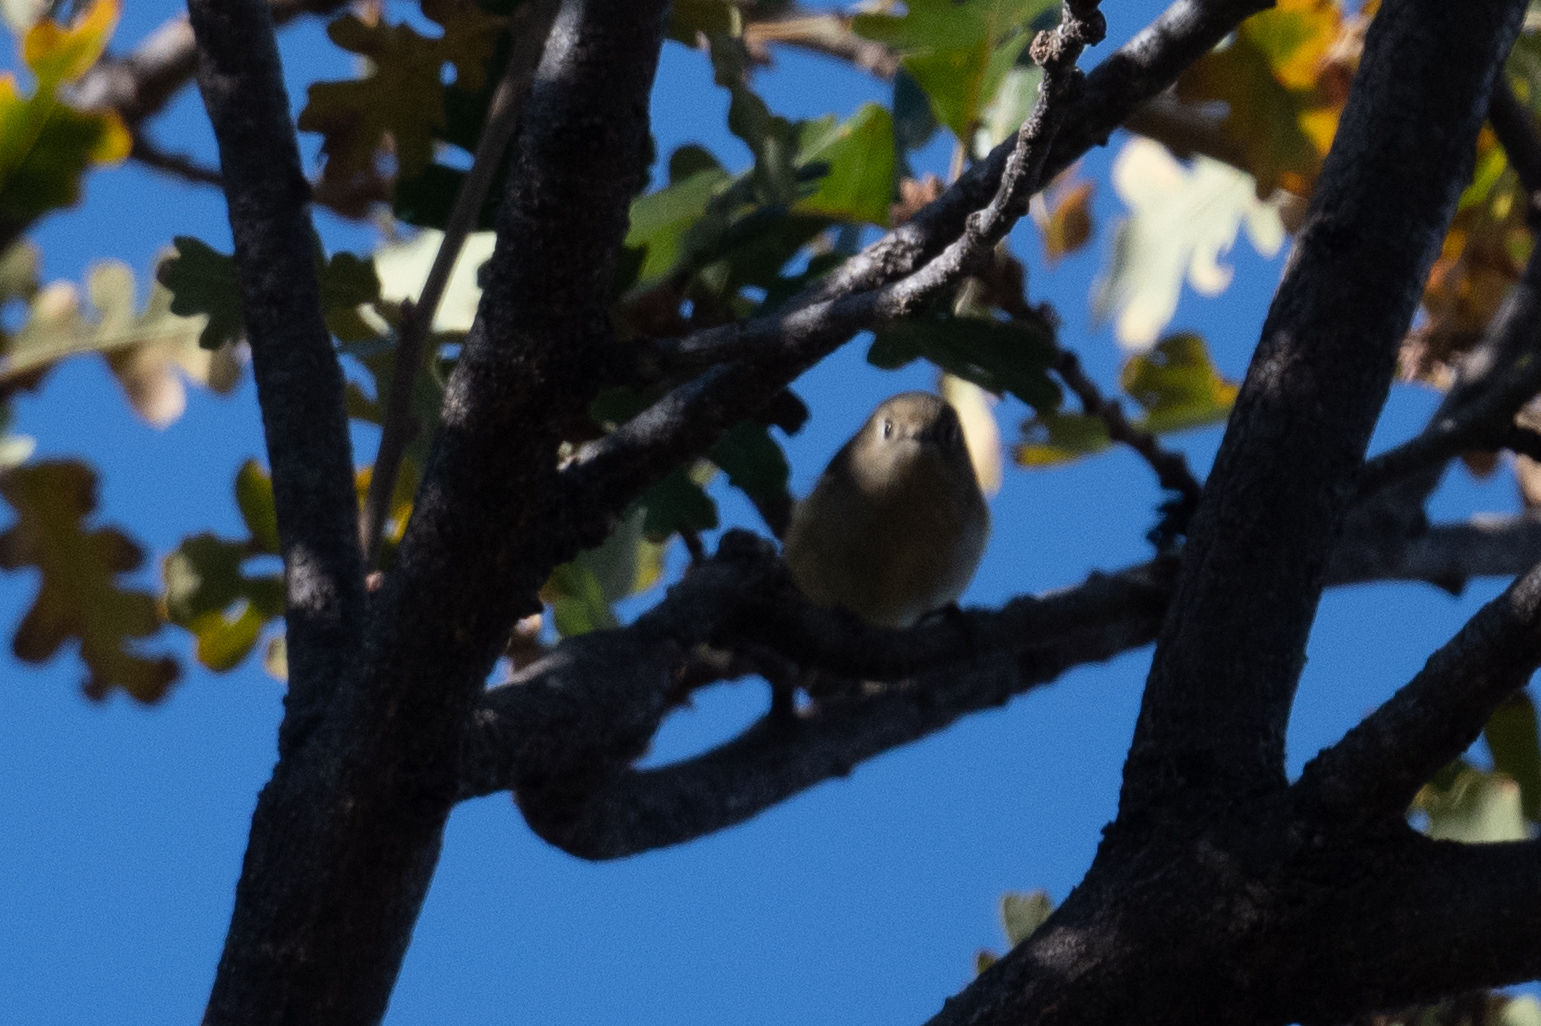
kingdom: Animalia
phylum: Chordata
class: Aves
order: Passeriformes
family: Regulidae
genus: Regulus
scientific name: Regulus calendula
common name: Ruby-crowned kinglet
